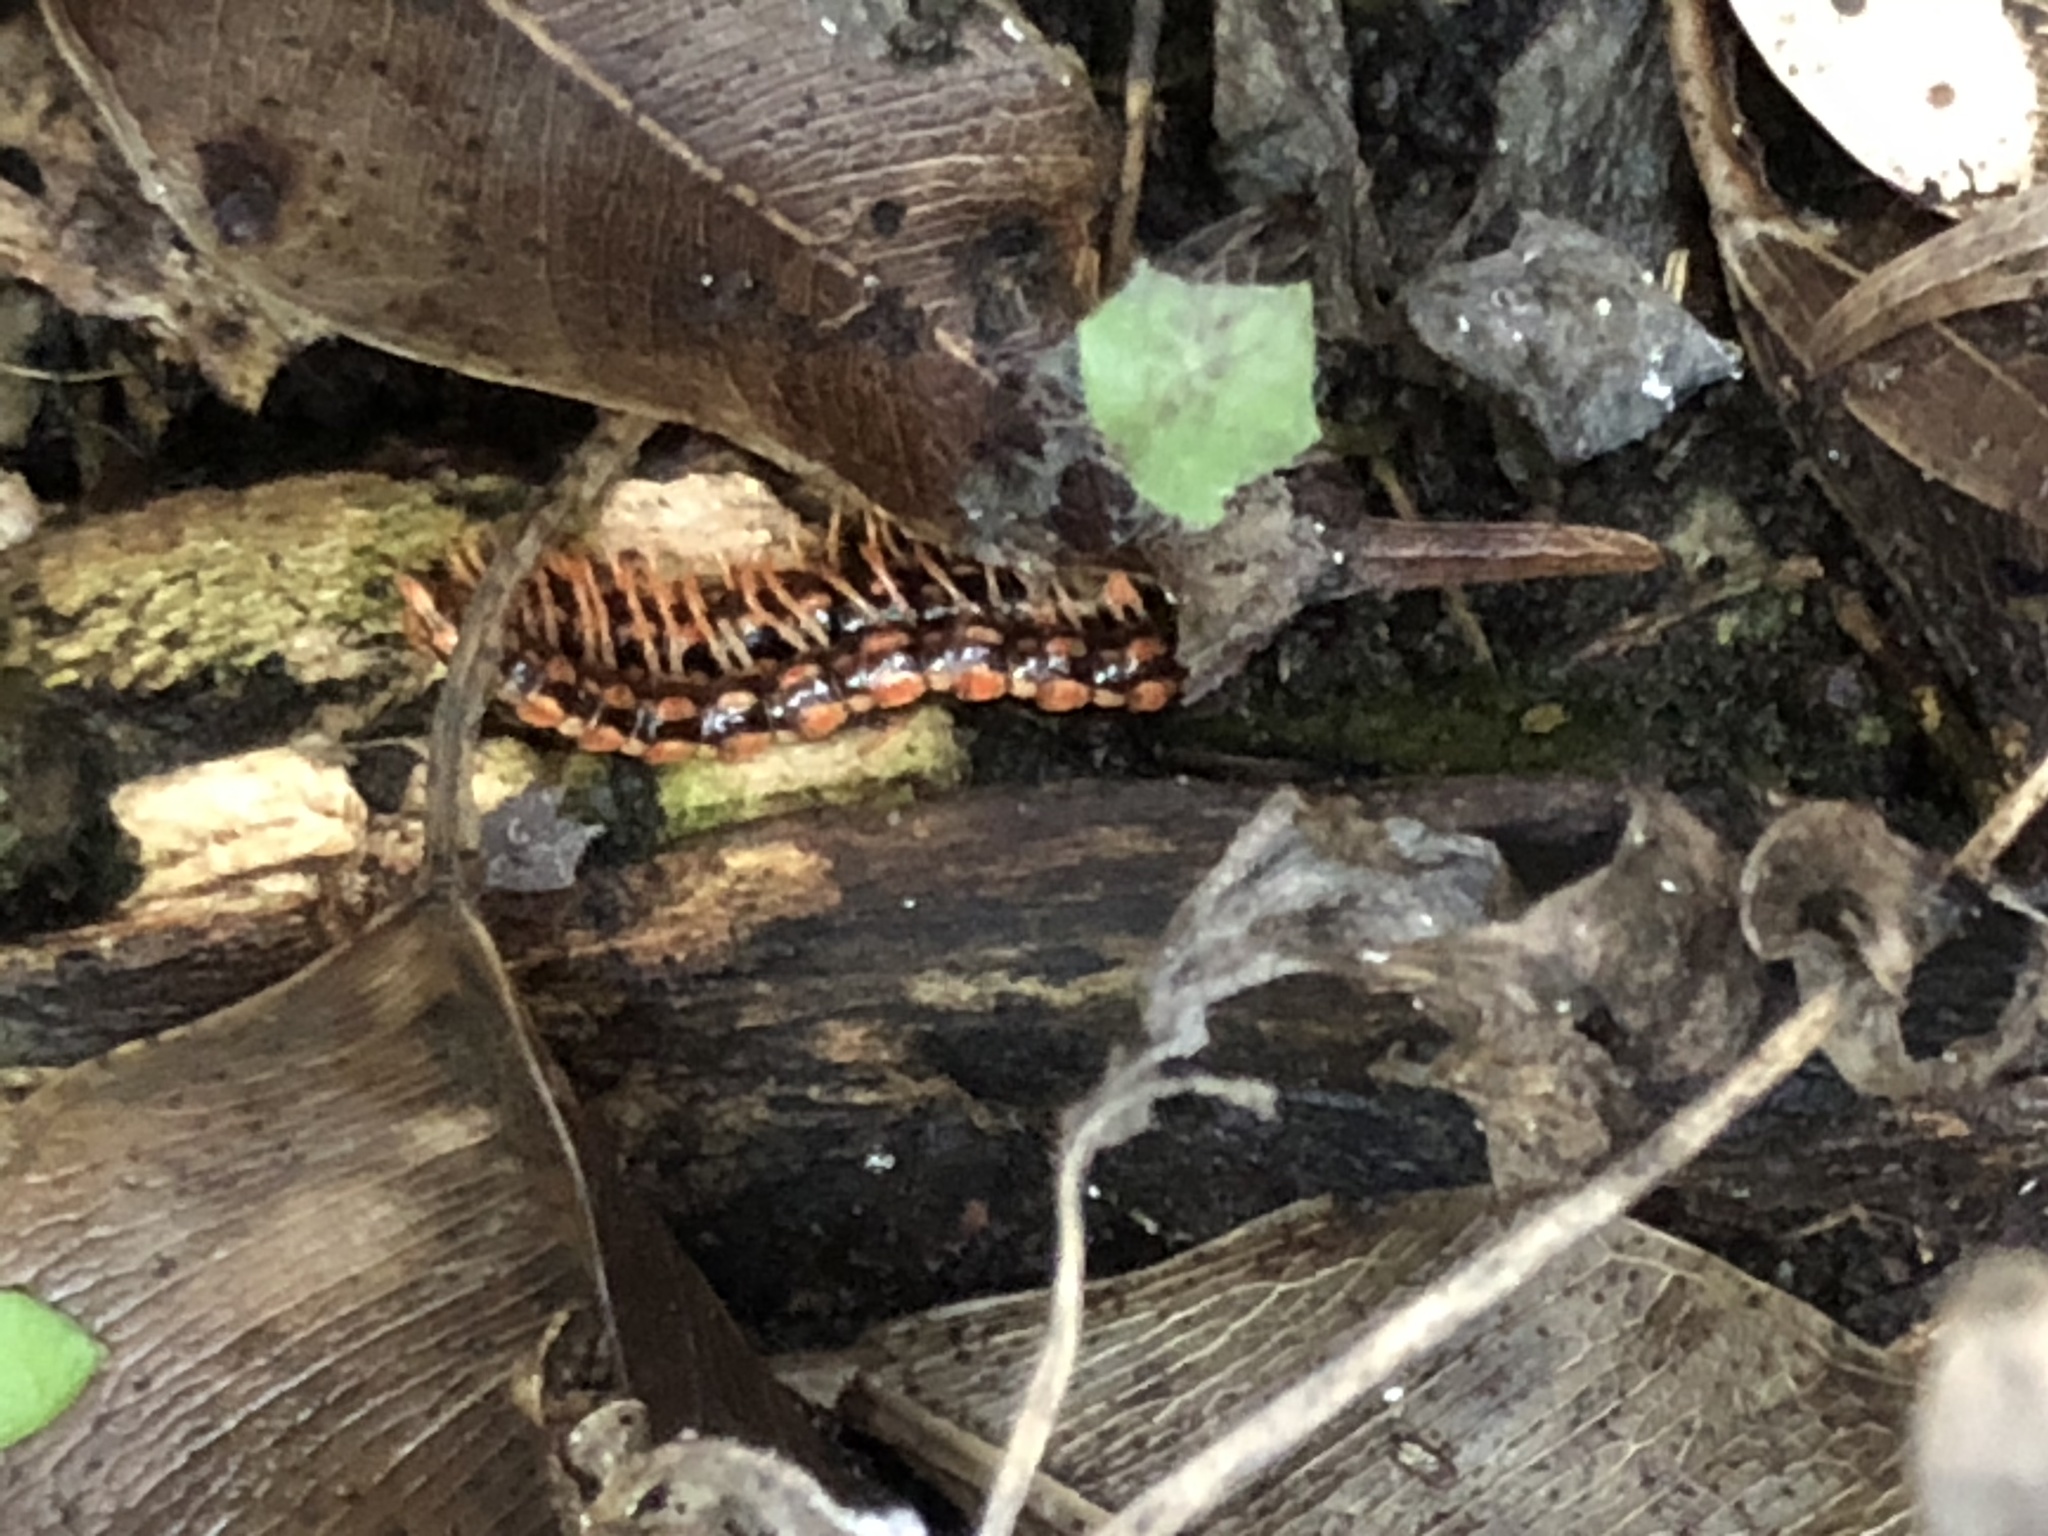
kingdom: Animalia
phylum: Arthropoda
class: Diplopoda
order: Polydesmida
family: Paradoxosomatidae
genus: Helicorthomorpha
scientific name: Helicorthomorpha holstii
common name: Millipede
